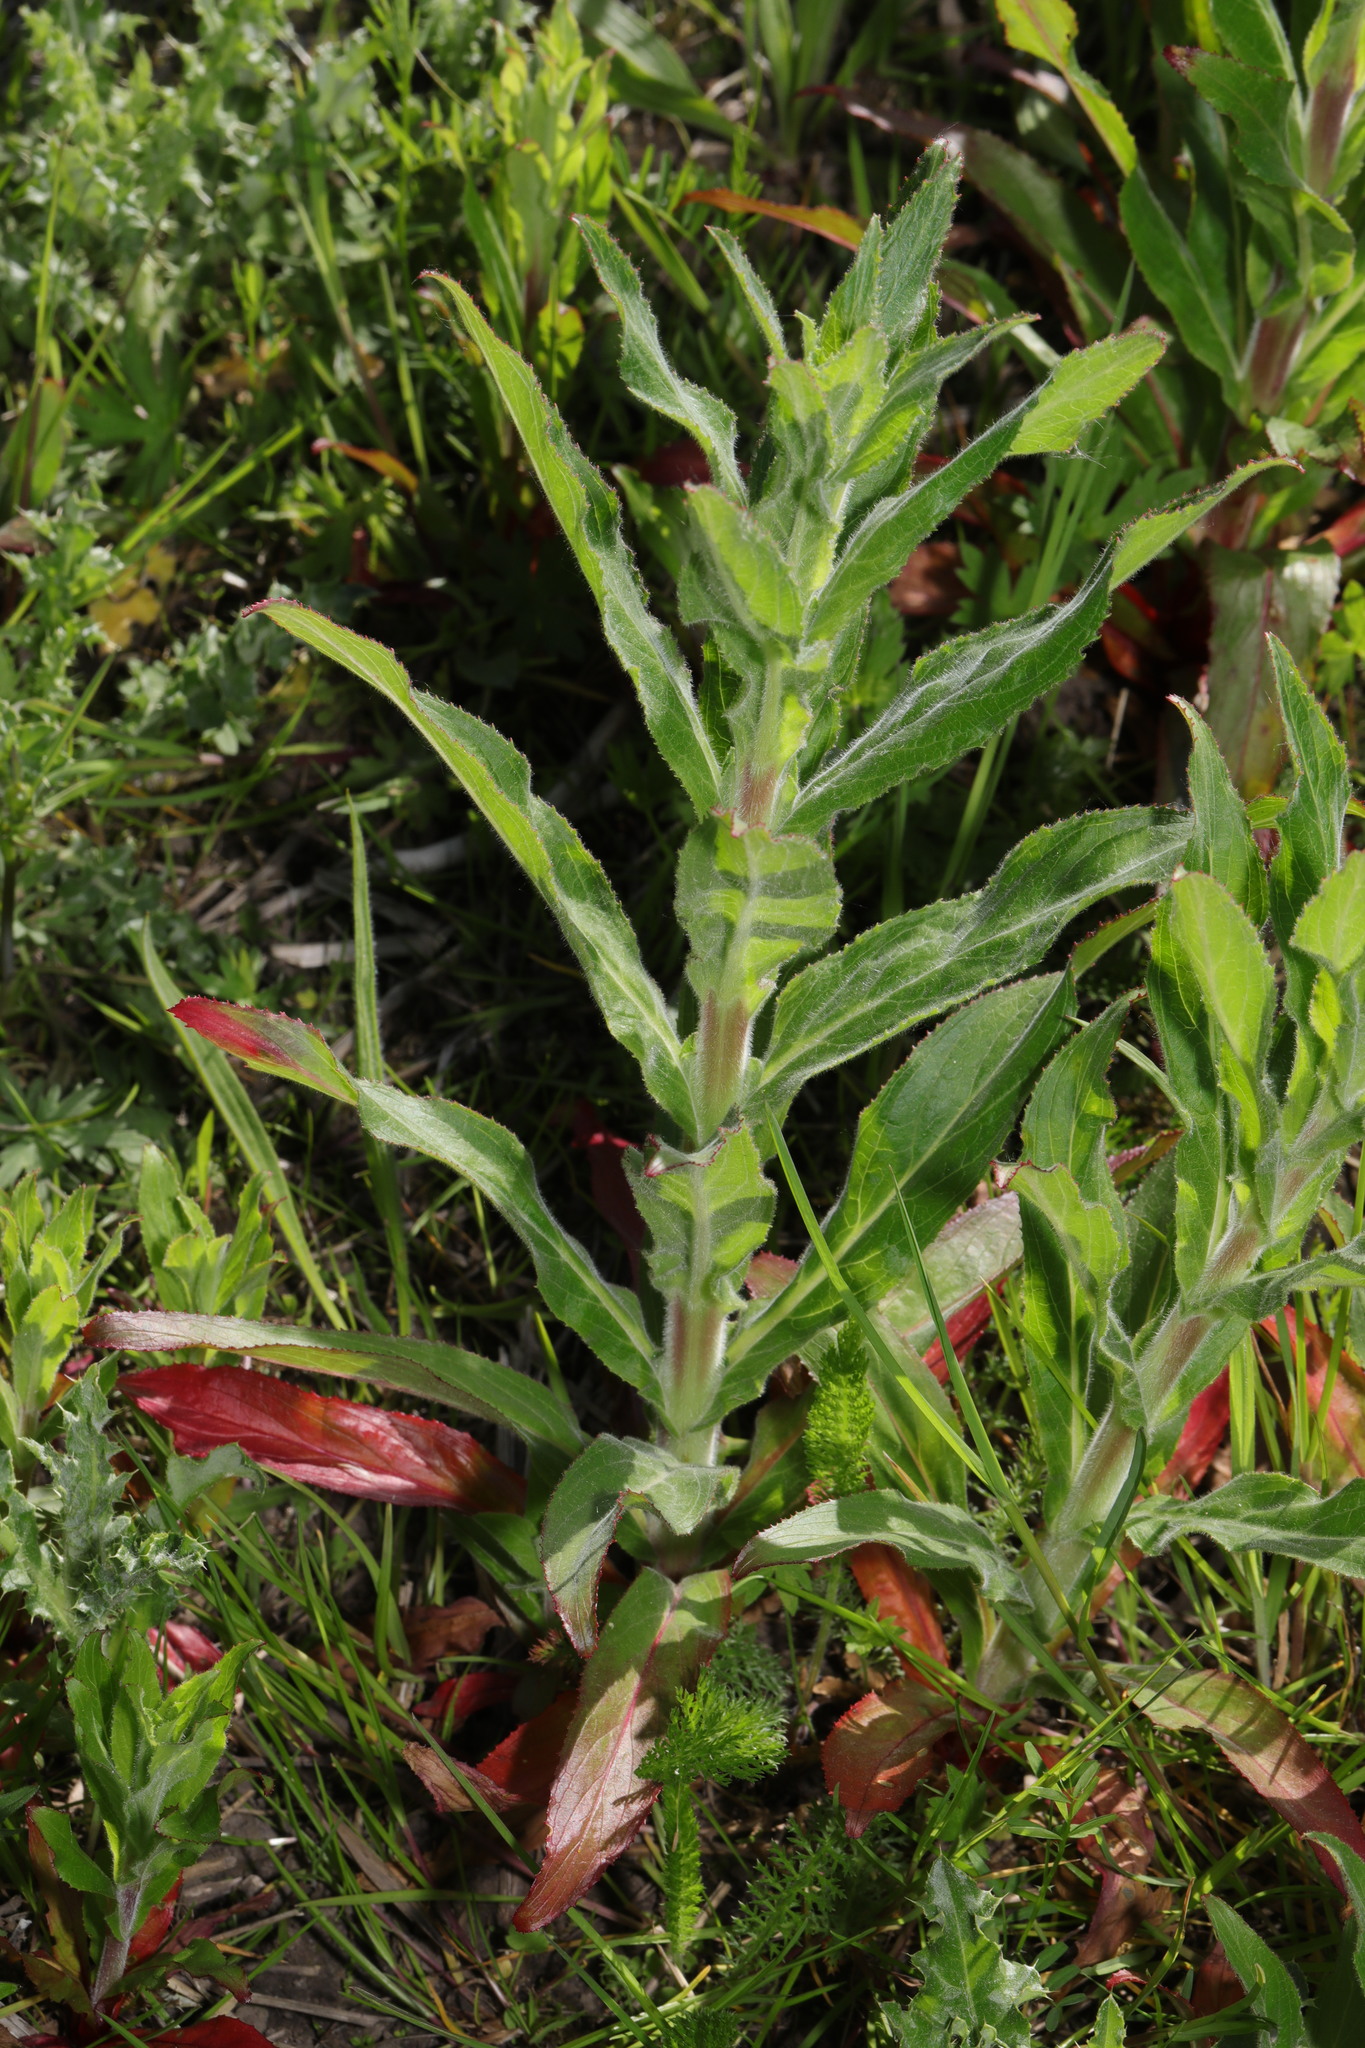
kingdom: Plantae
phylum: Tracheophyta
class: Magnoliopsida
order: Myrtales
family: Onagraceae
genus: Epilobium
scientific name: Epilobium hirsutum
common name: Great willowherb
